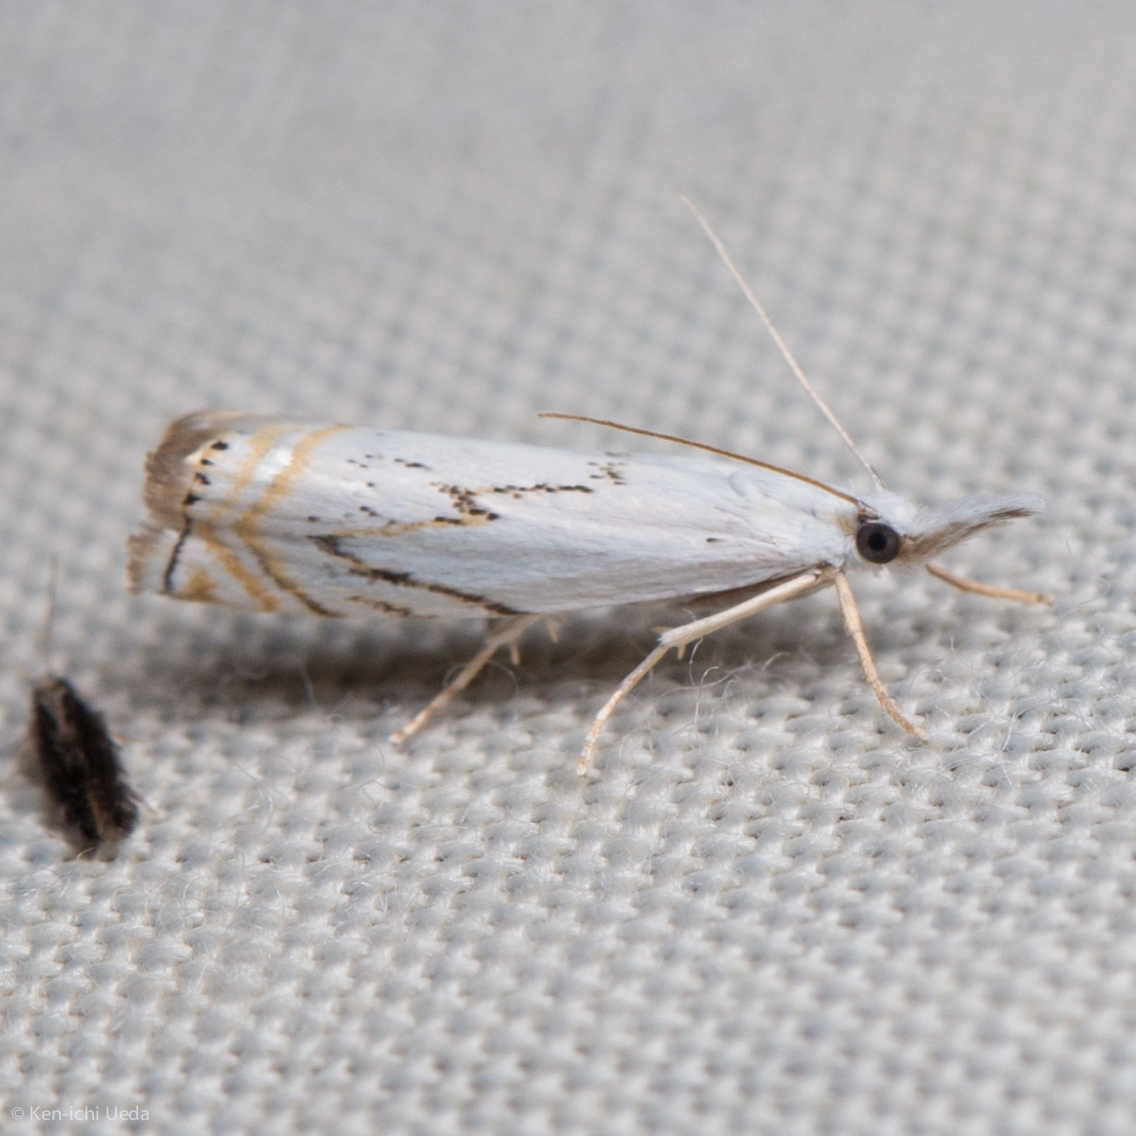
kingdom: Animalia
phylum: Arthropoda
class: Insecta
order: Lepidoptera
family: Crambidae
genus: Crambus
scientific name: Crambus albellus
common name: Small white grass-veneer
